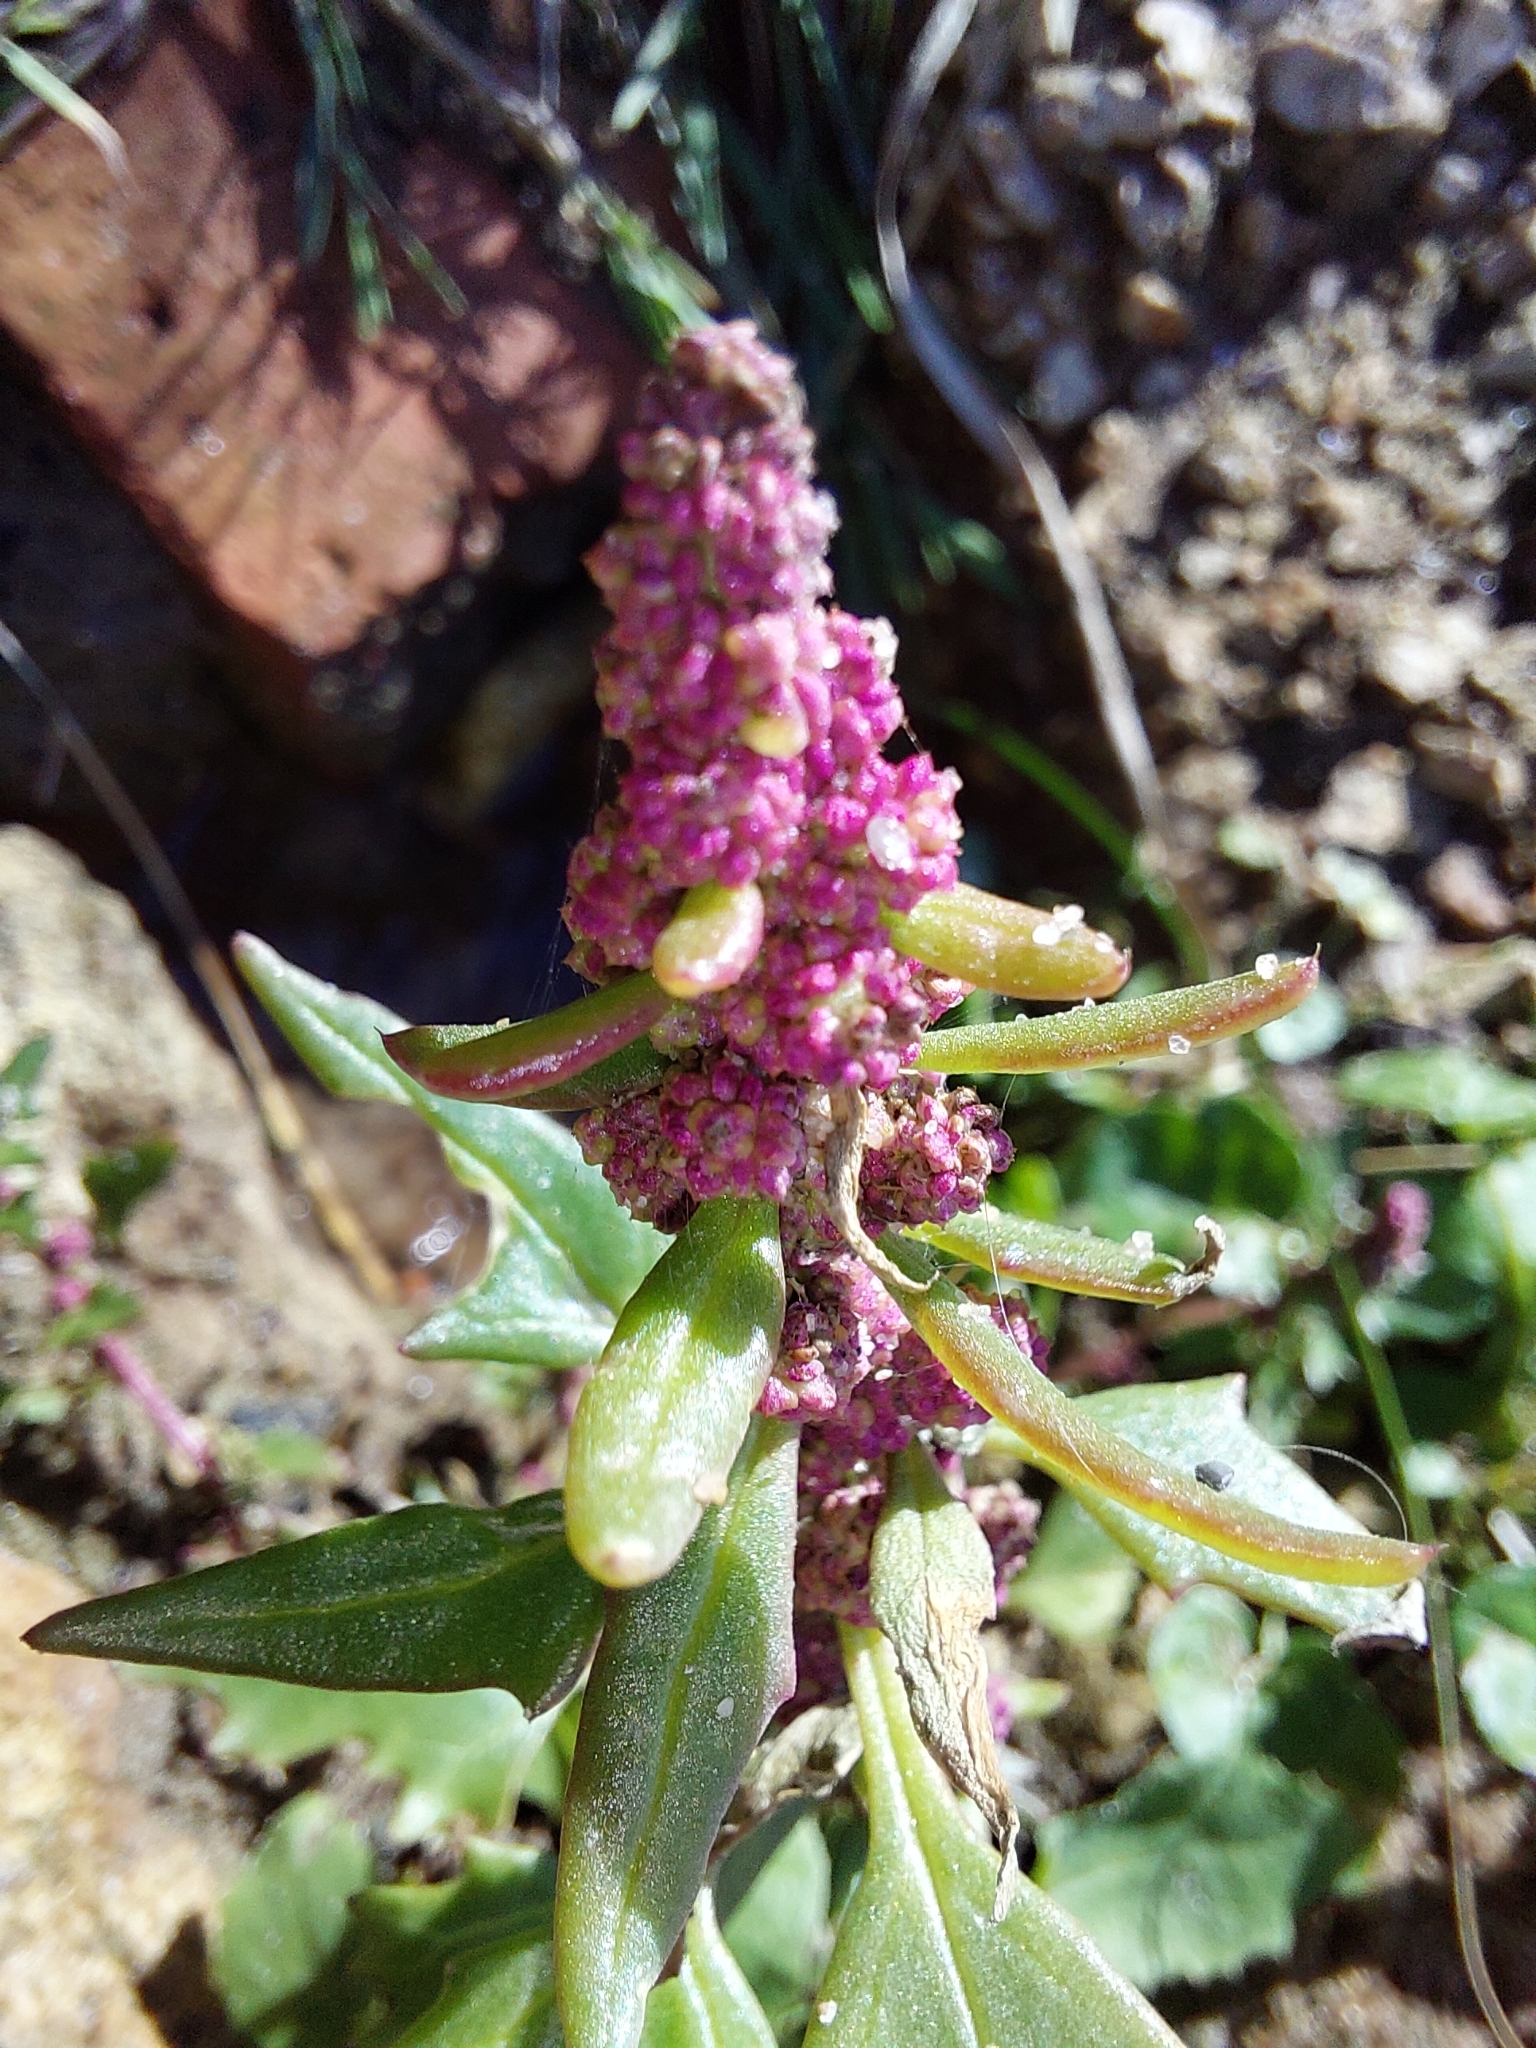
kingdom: Plantae
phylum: Tracheophyta
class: Magnoliopsida
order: Caryophyllales
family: Amaranthaceae
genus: Oxybasis
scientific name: Oxybasis rubra
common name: Red goosefoot
